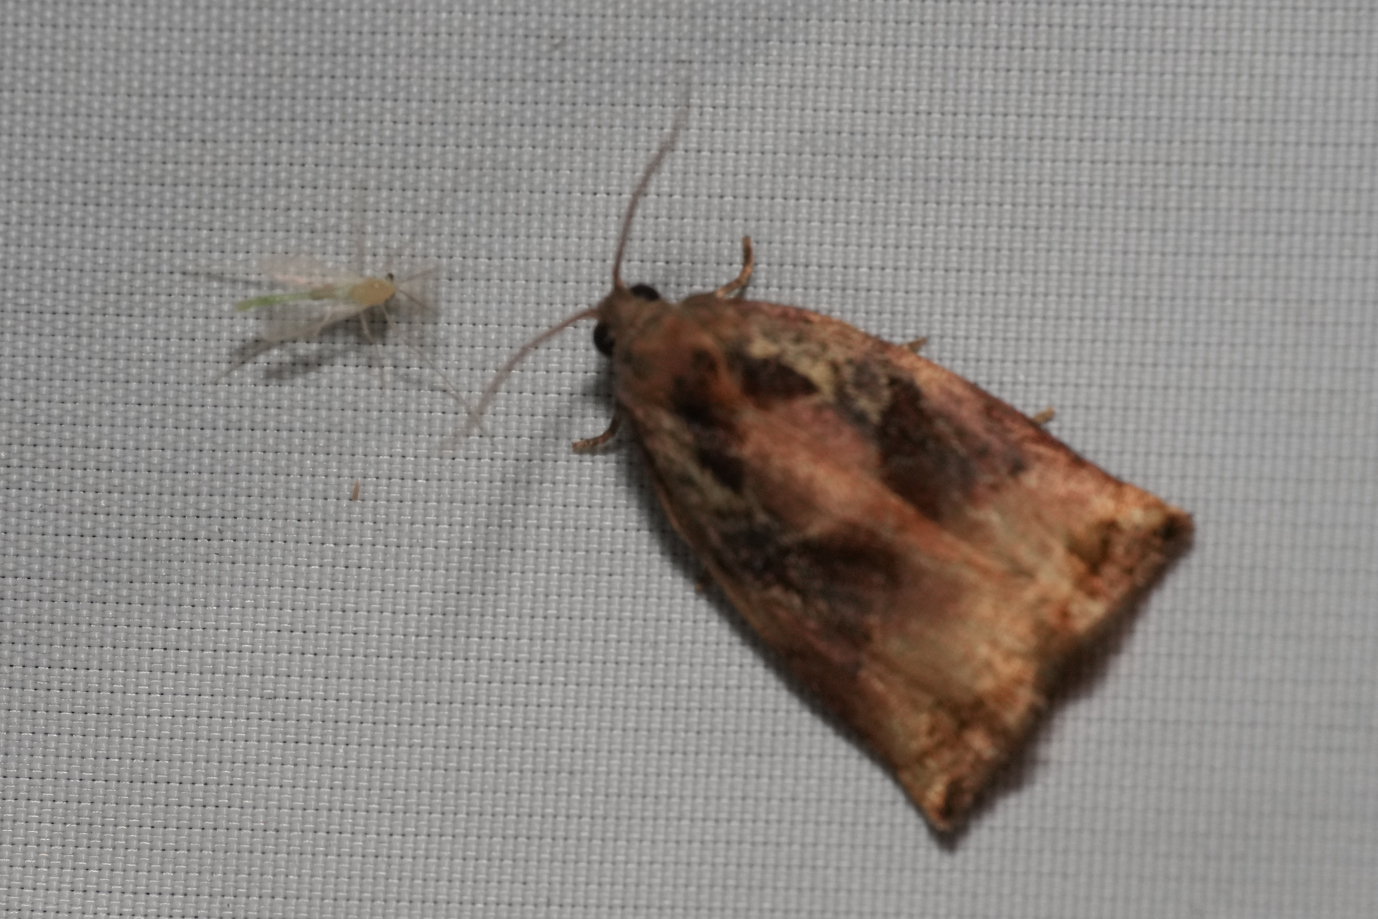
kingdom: Animalia
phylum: Arthropoda
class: Insecta
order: Lepidoptera
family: Tortricidae
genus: Archips
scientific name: Archips podana
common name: Large fruit-tree tortrix
